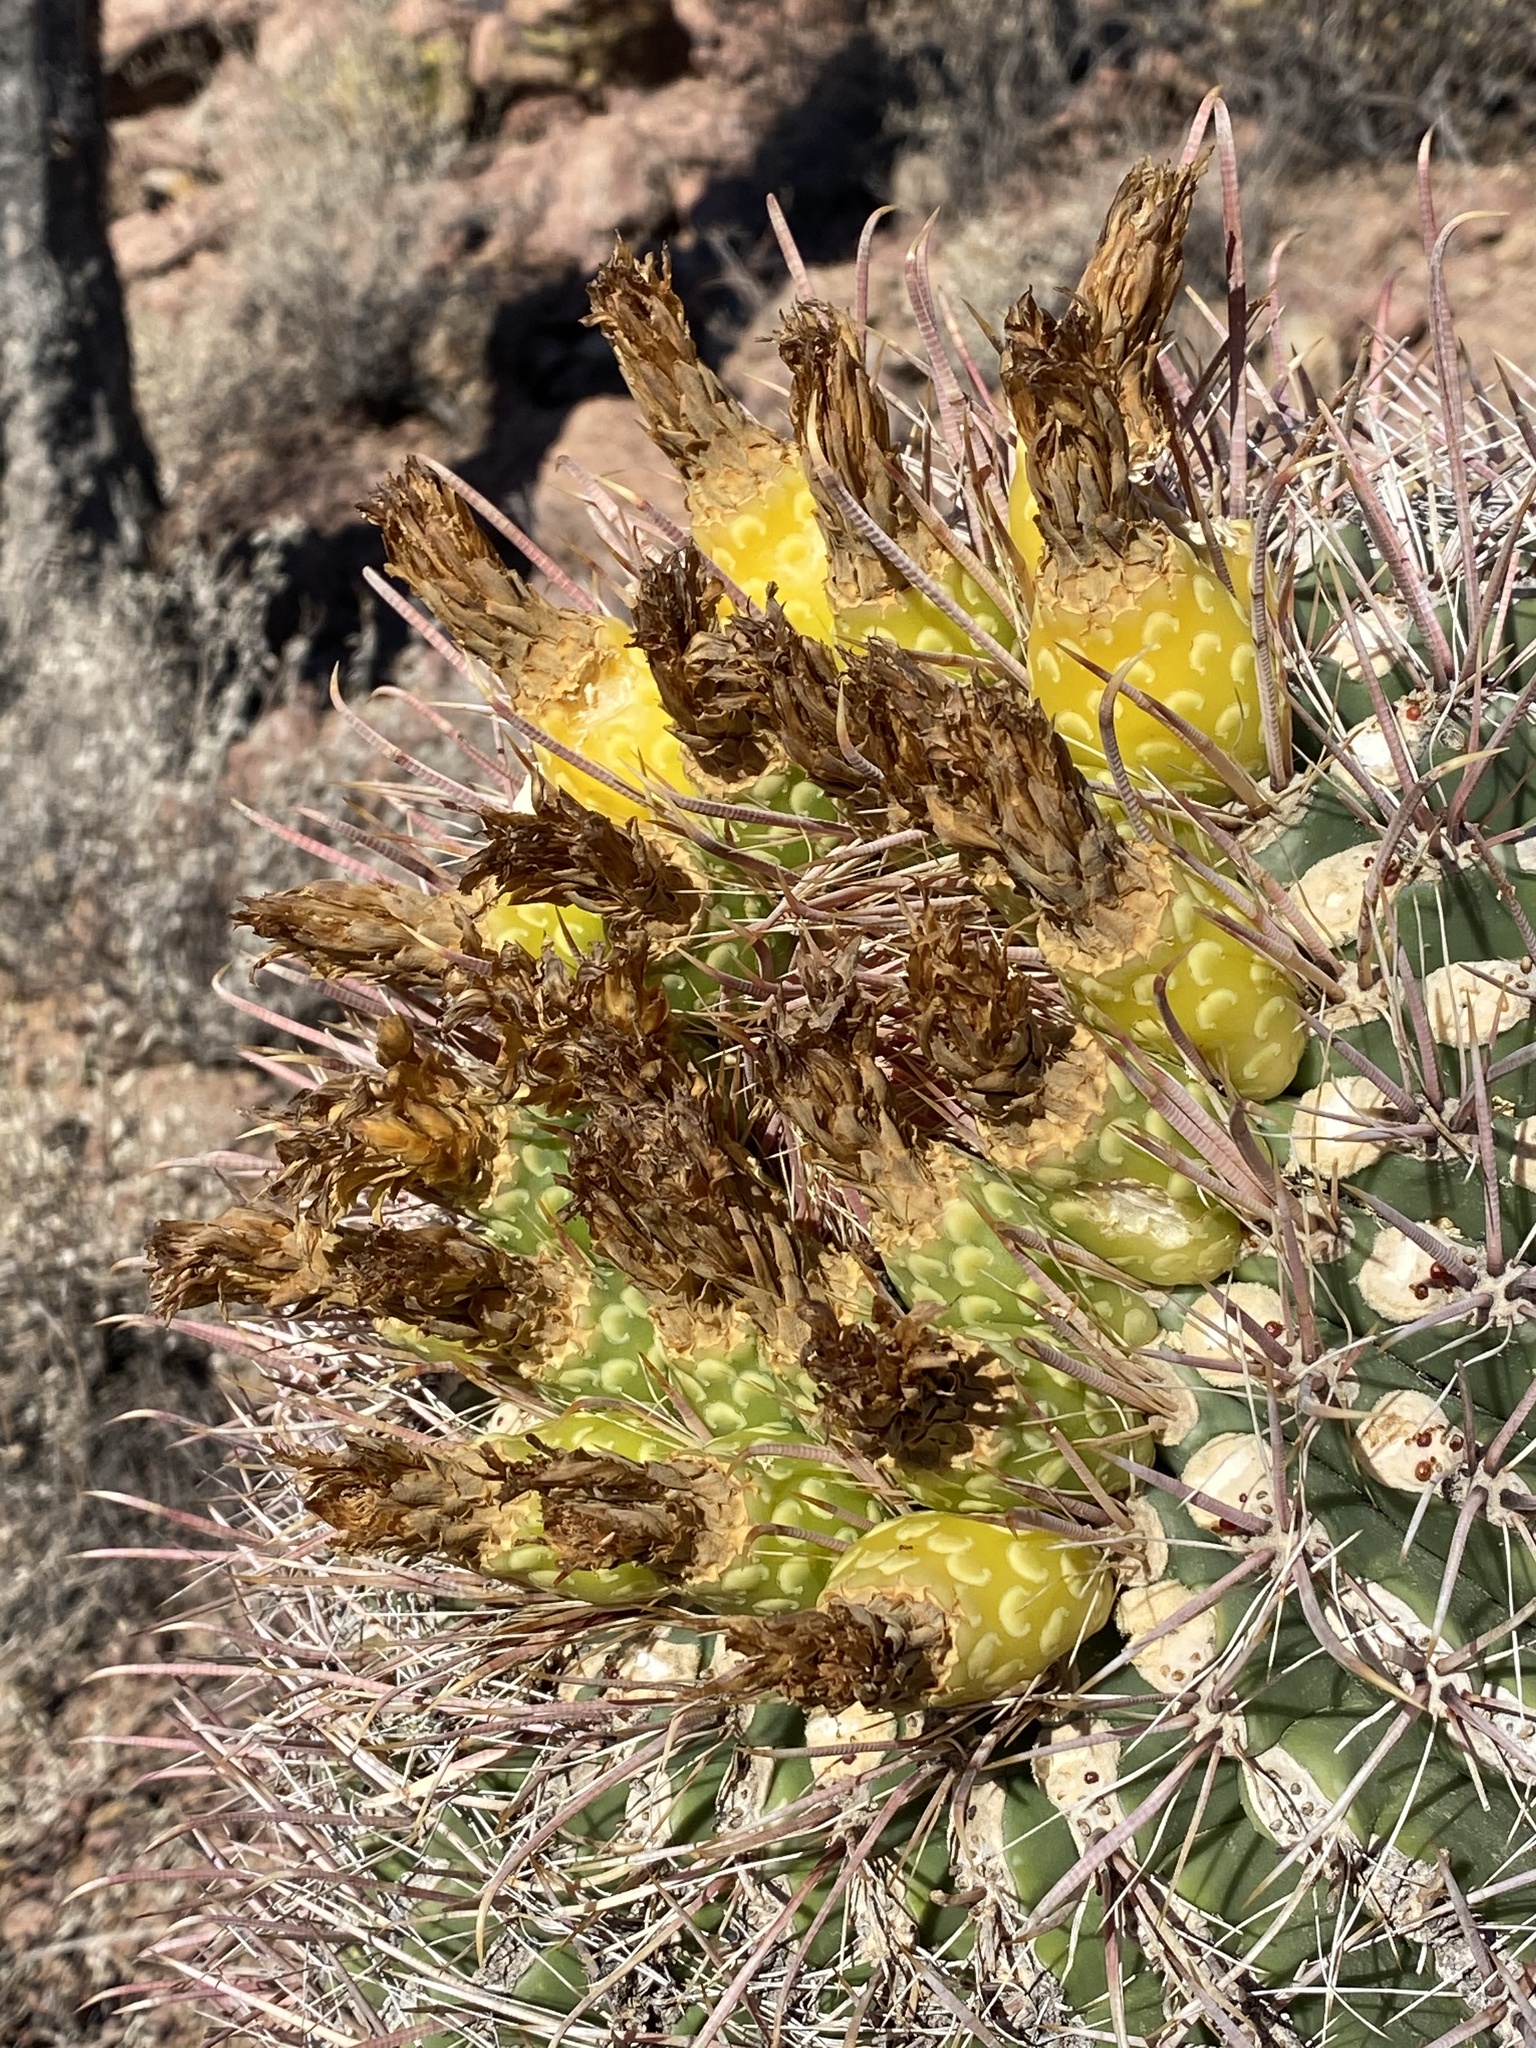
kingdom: Plantae
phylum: Tracheophyta
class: Magnoliopsida
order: Caryophyllales
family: Cactaceae
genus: Ferocactus
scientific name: Ferocactus wislizeni
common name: Candy barrel cactus
